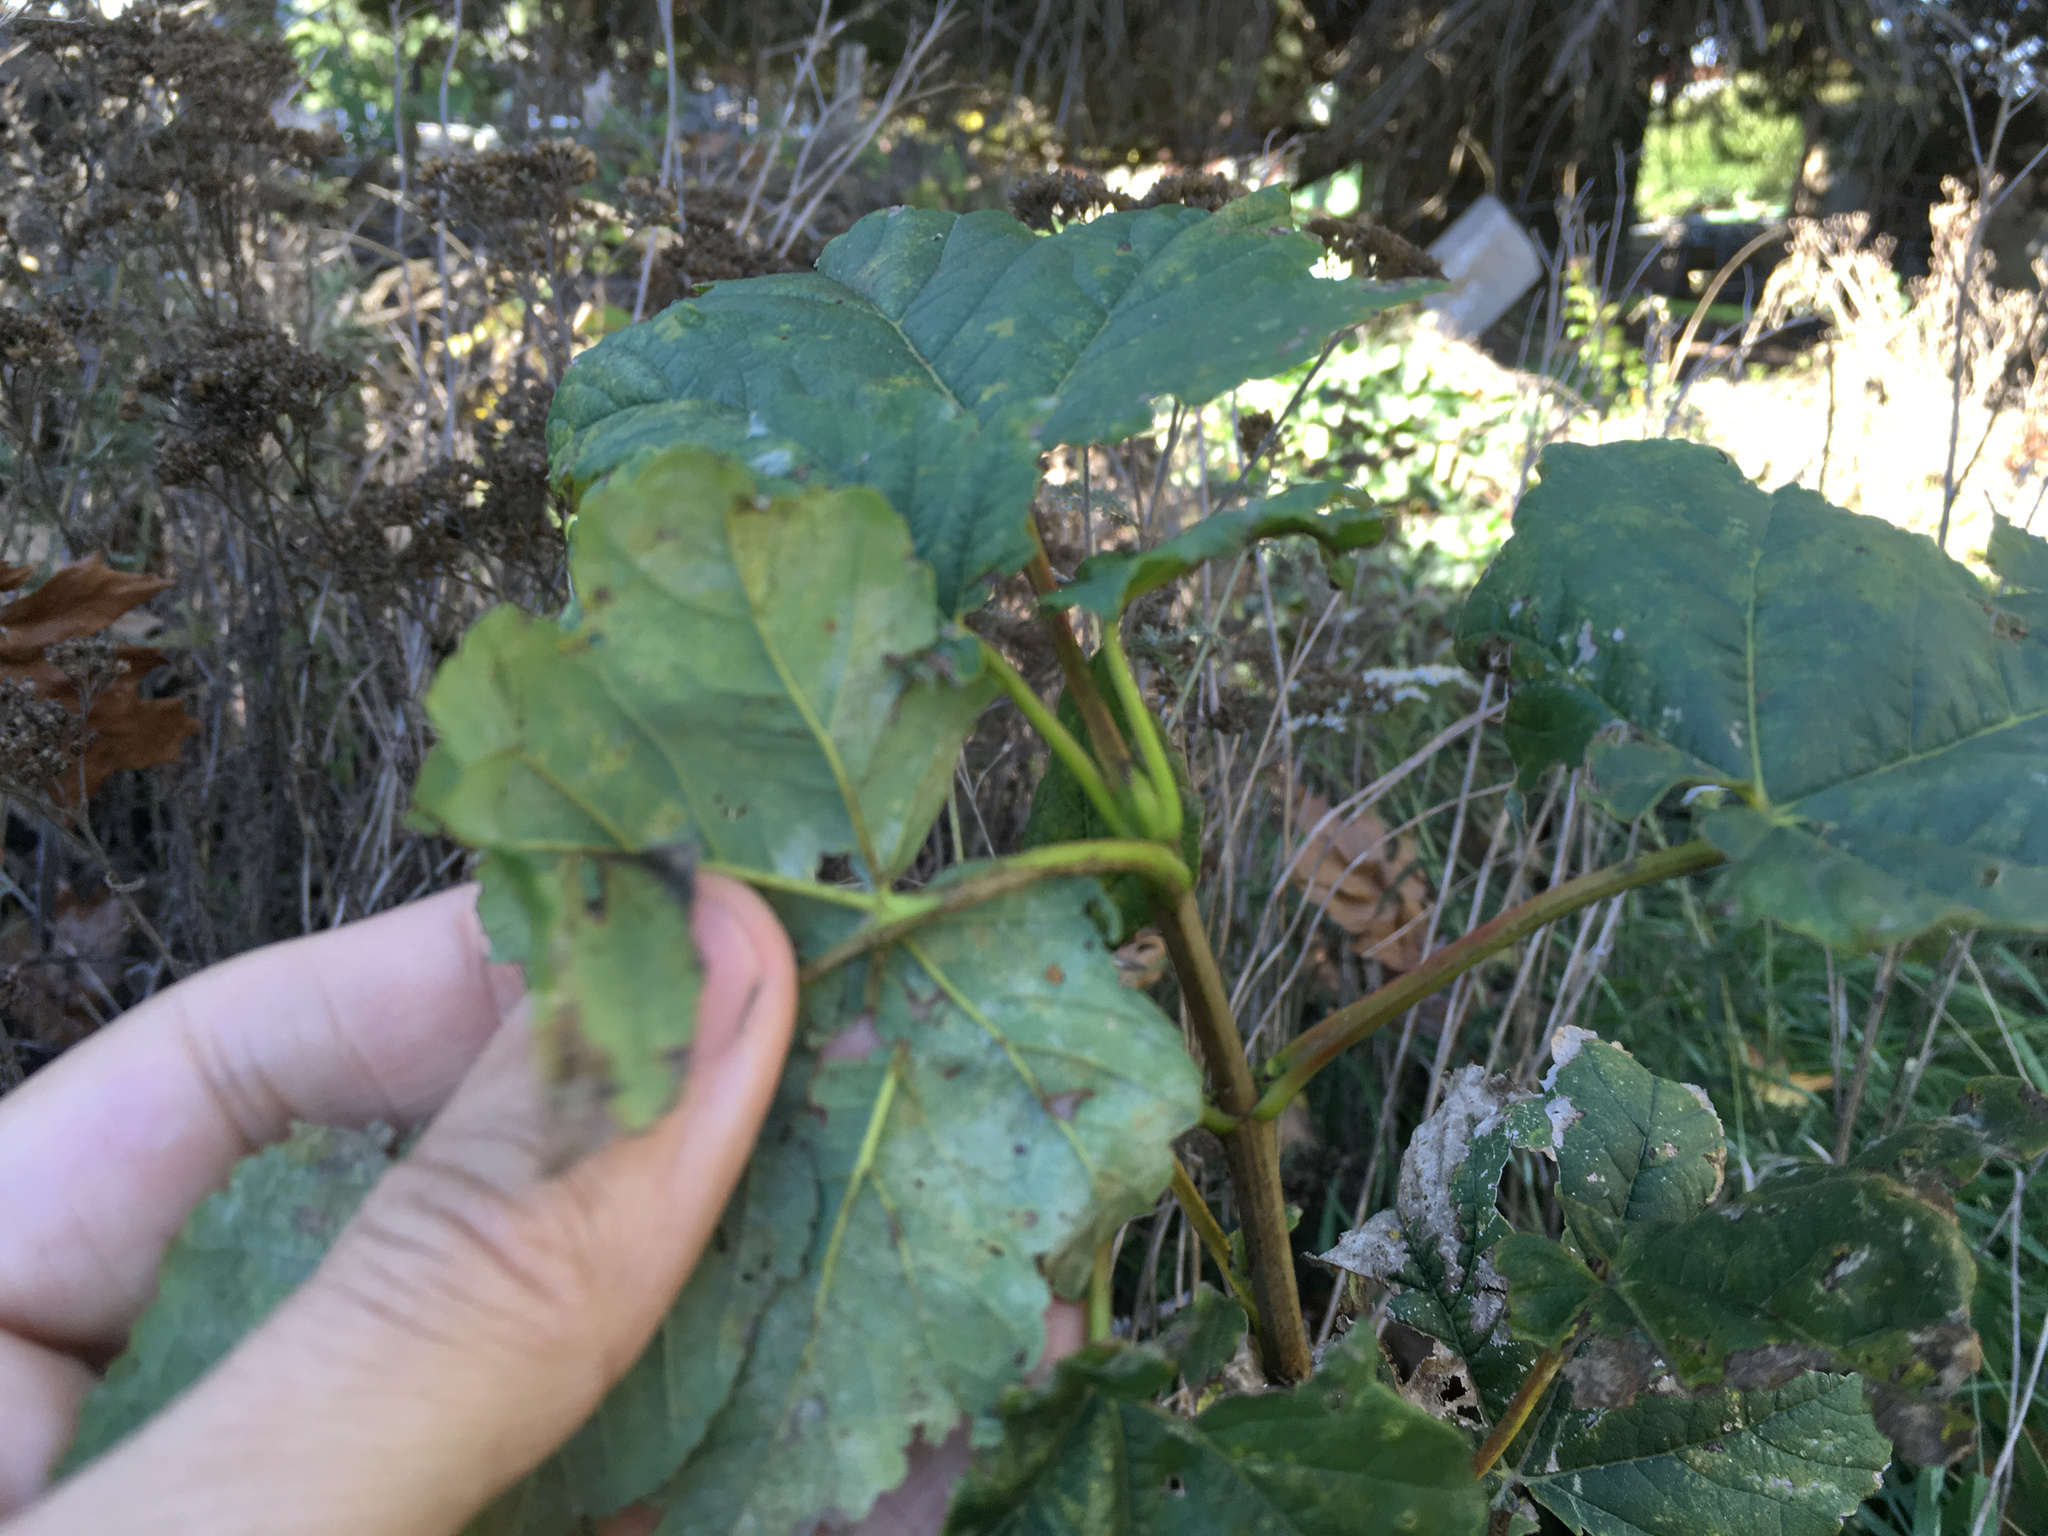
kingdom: Plantae
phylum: Tracheophyta
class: Magnoliopsida
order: Sapindales
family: Sapindaceae
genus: Acer
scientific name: Acer pseudoplatanus
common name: Sycamore
